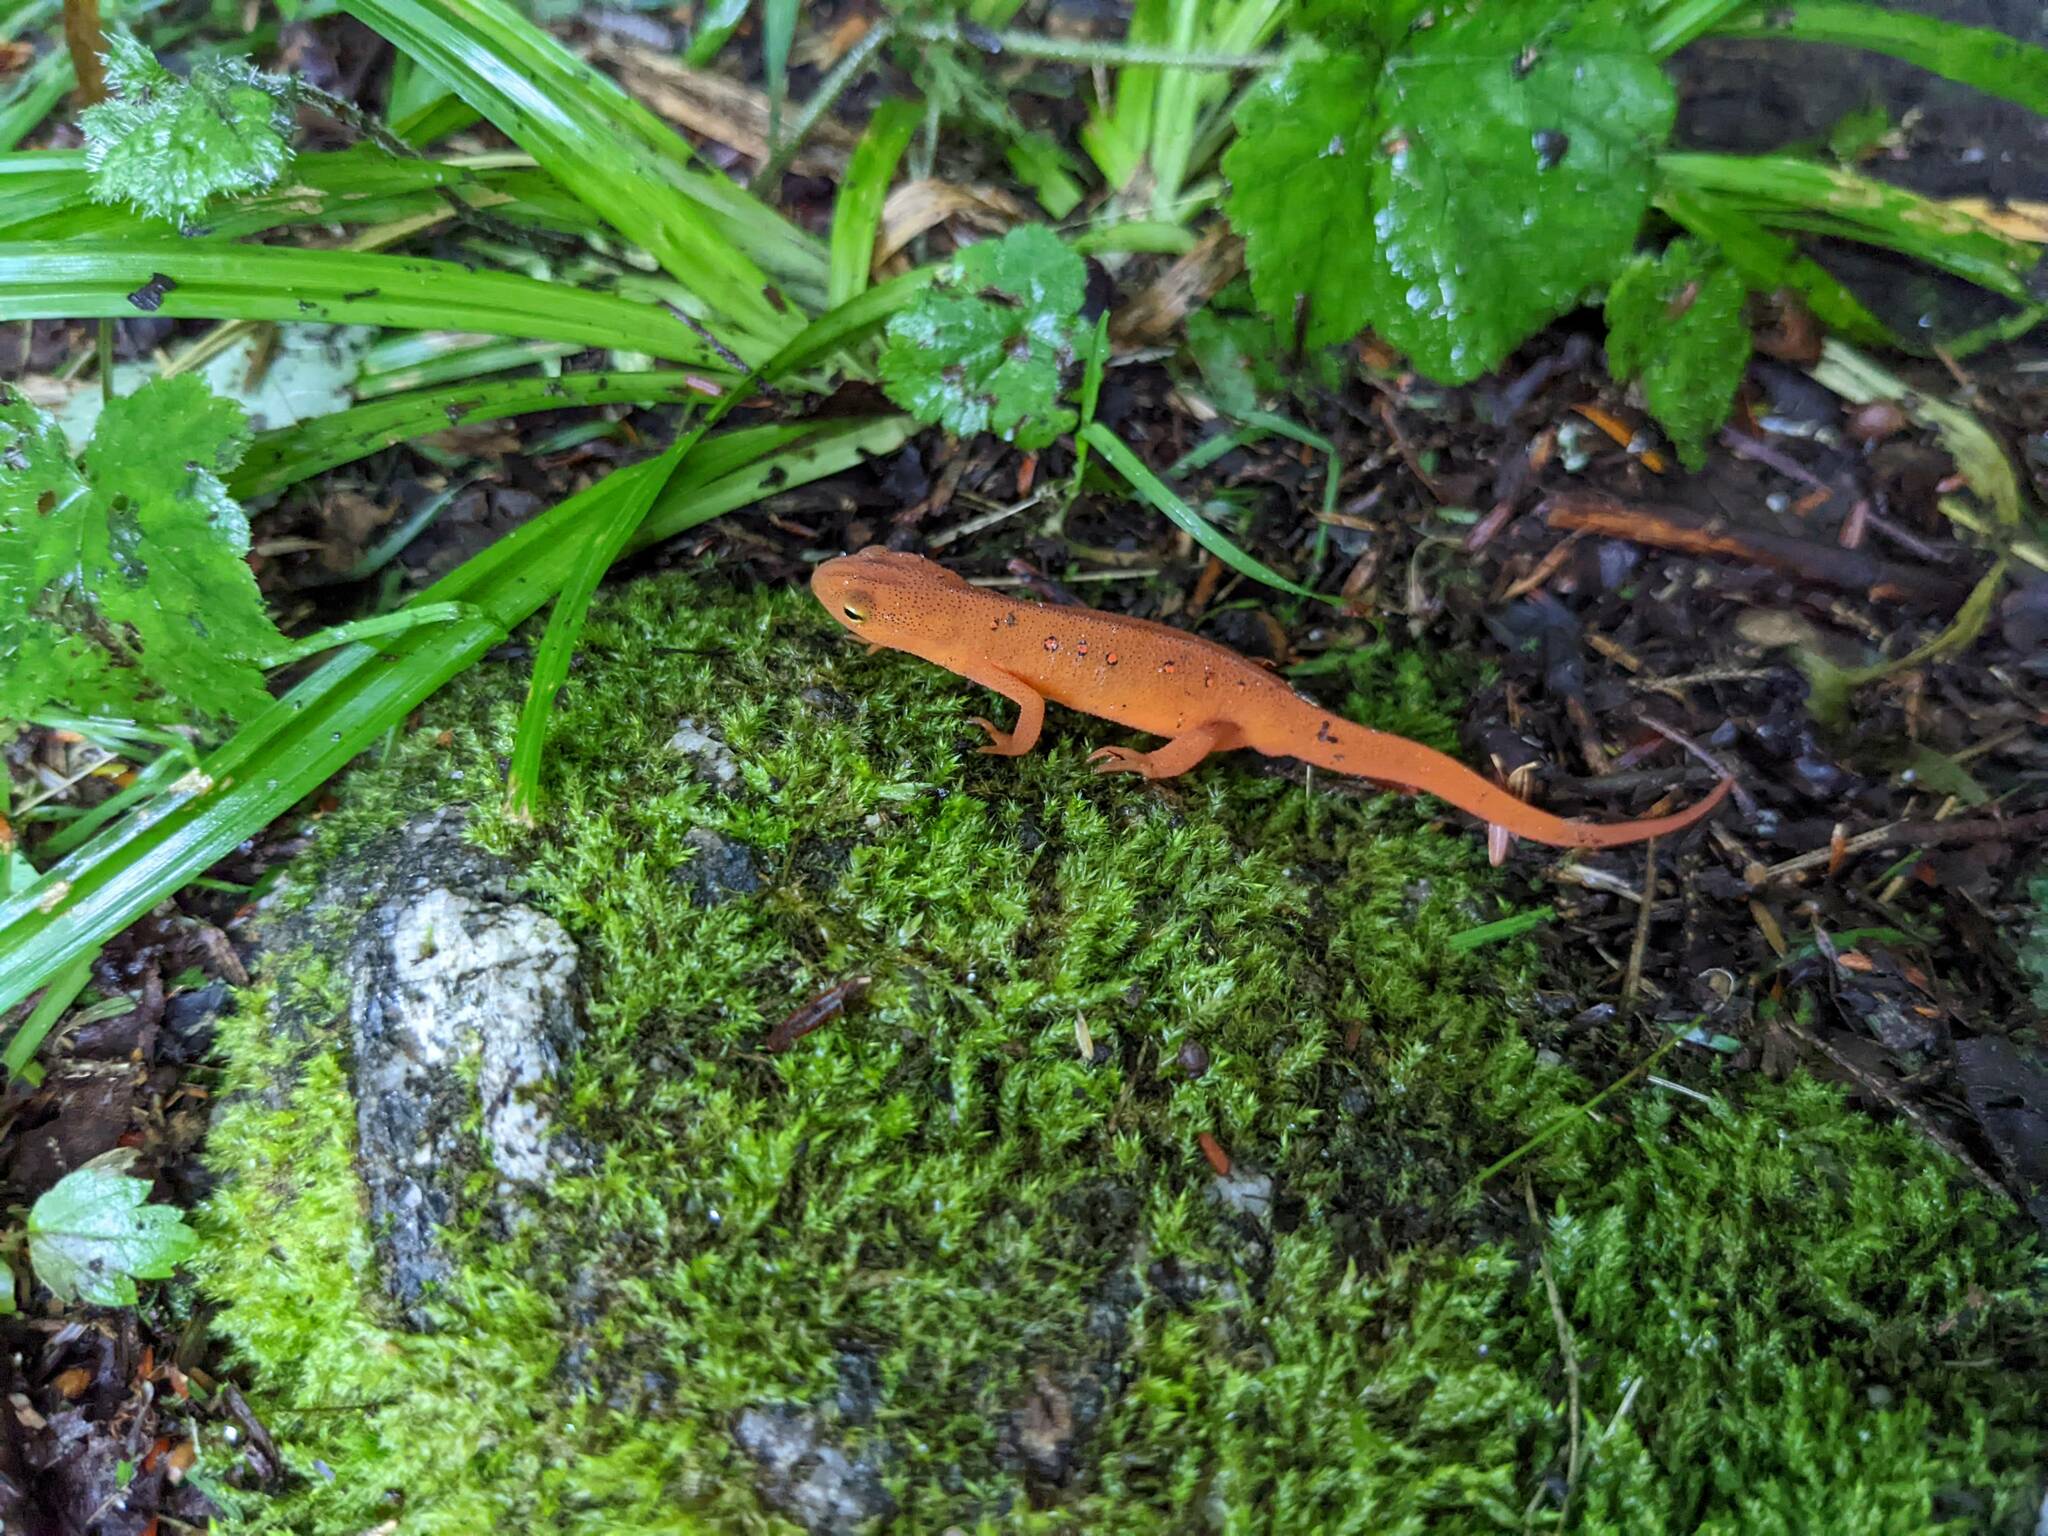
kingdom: Animalia
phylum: Chordata
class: Amphibia
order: Caudata
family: Salamandridae
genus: Notophthalmus
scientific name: Notophthalmus viridescens
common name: Eastern newt
